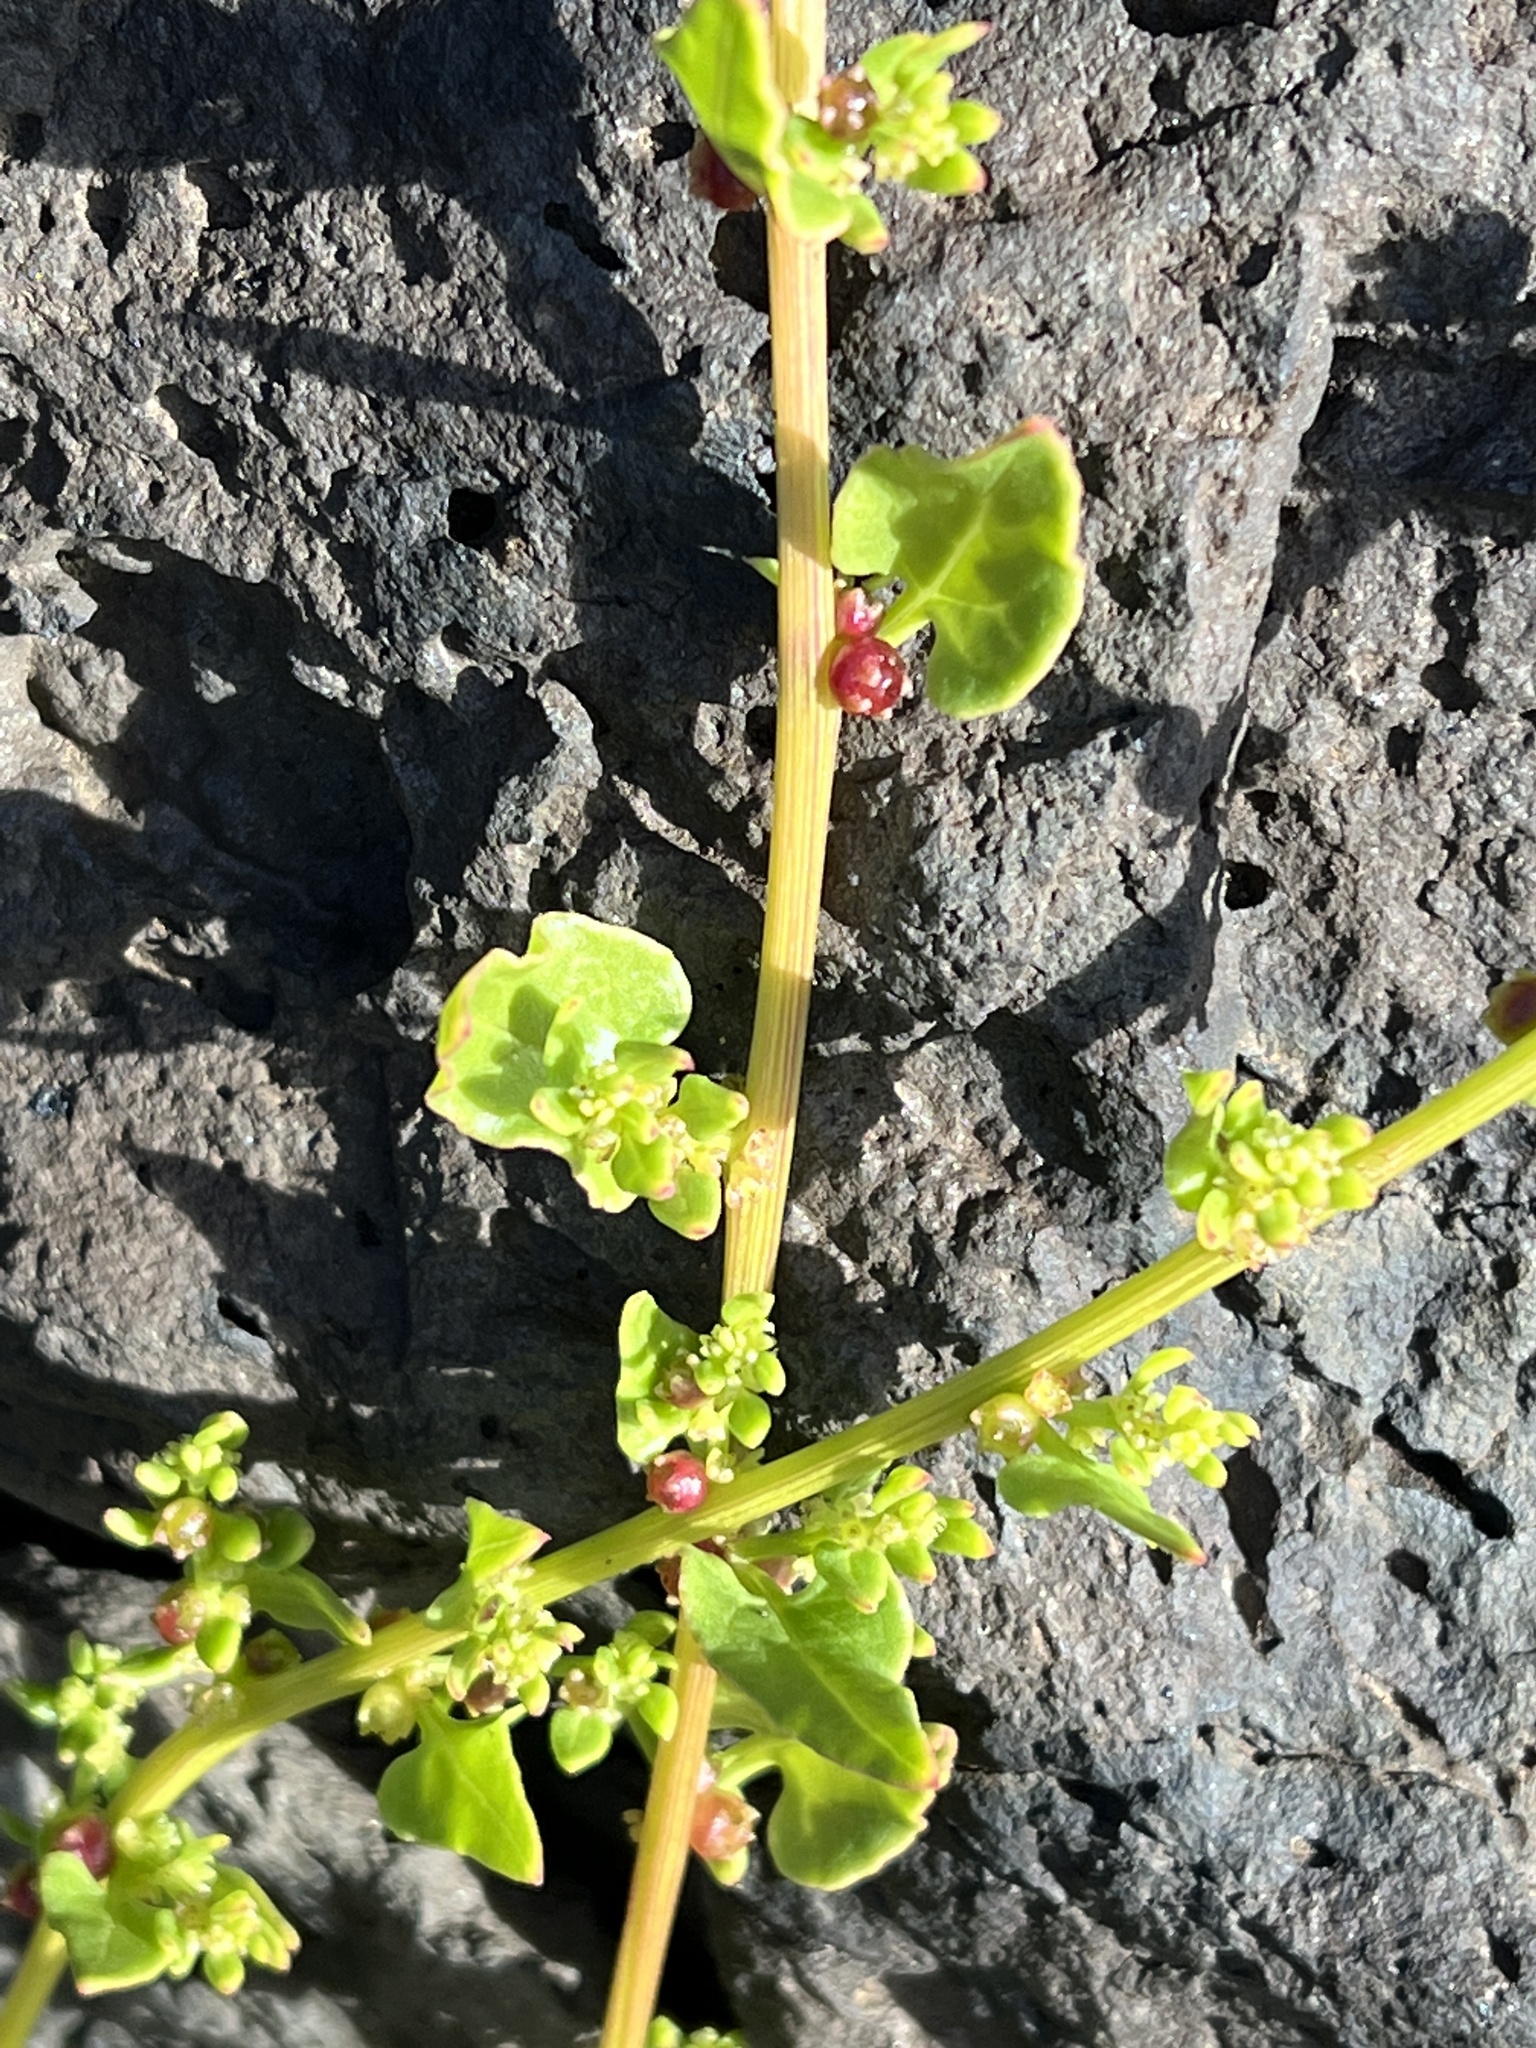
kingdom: Plantae
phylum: Tracheophyta
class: Magnoliopsida
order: Caryophyllales
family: Amaranthaceae
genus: Patellifolia
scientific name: Patellifolia procumbens
